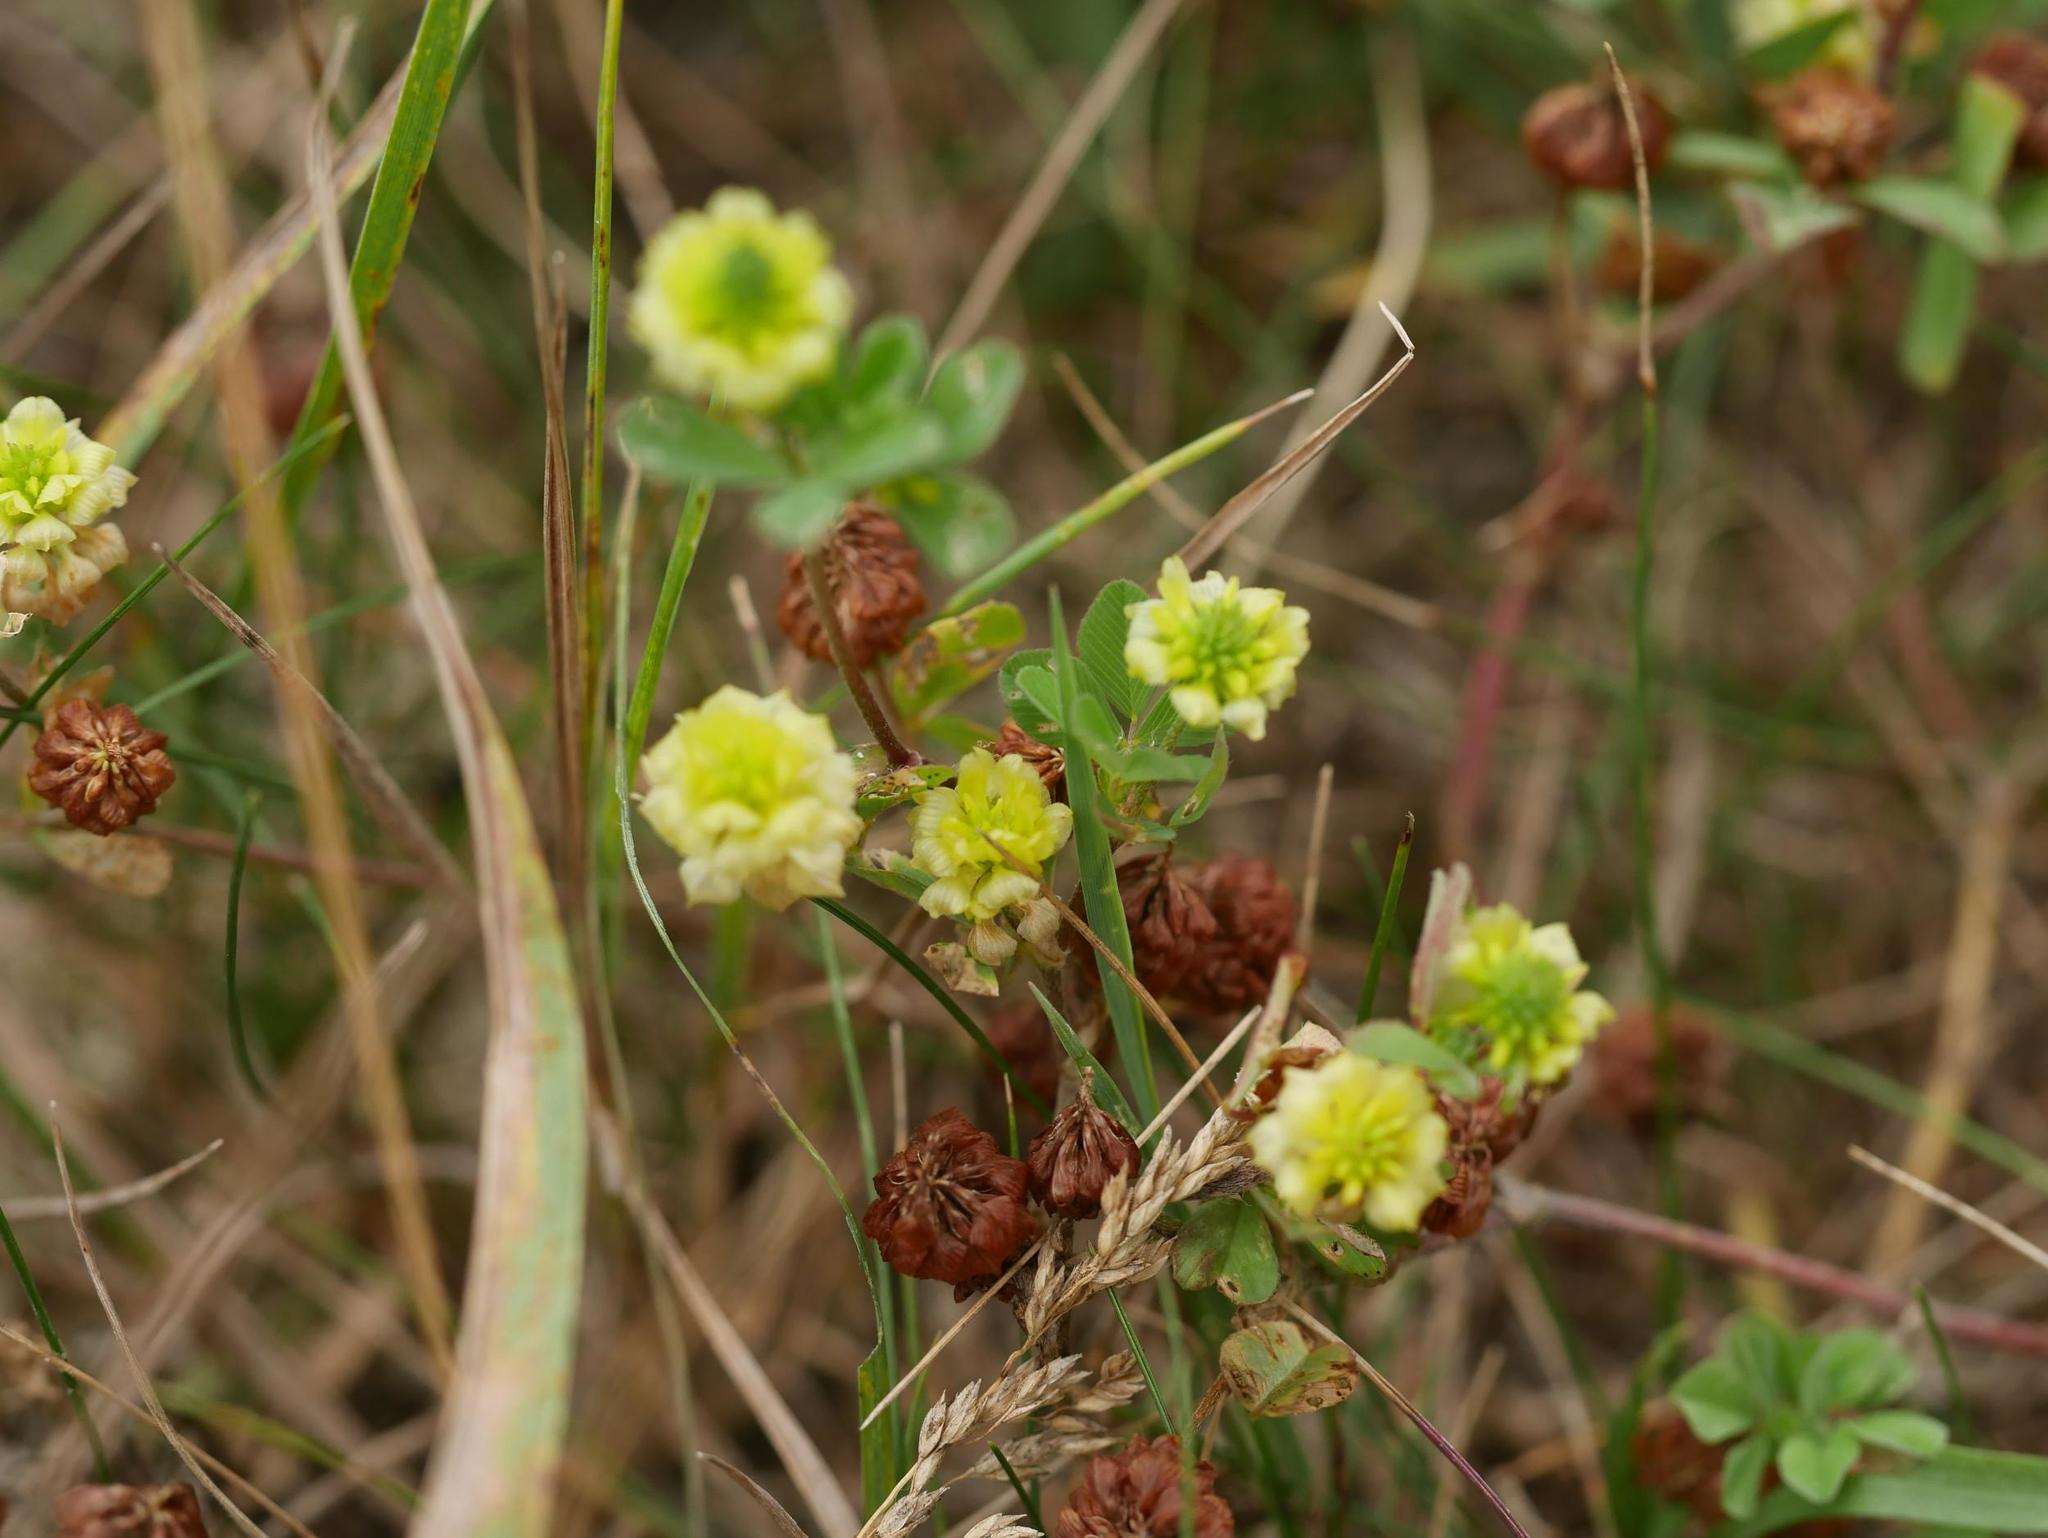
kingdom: Plantae
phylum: Tracheophyta
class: Magnoliopsida
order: Fabales
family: Fabaceae
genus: Trifolium
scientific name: Trifolium campestre
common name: Field clover
